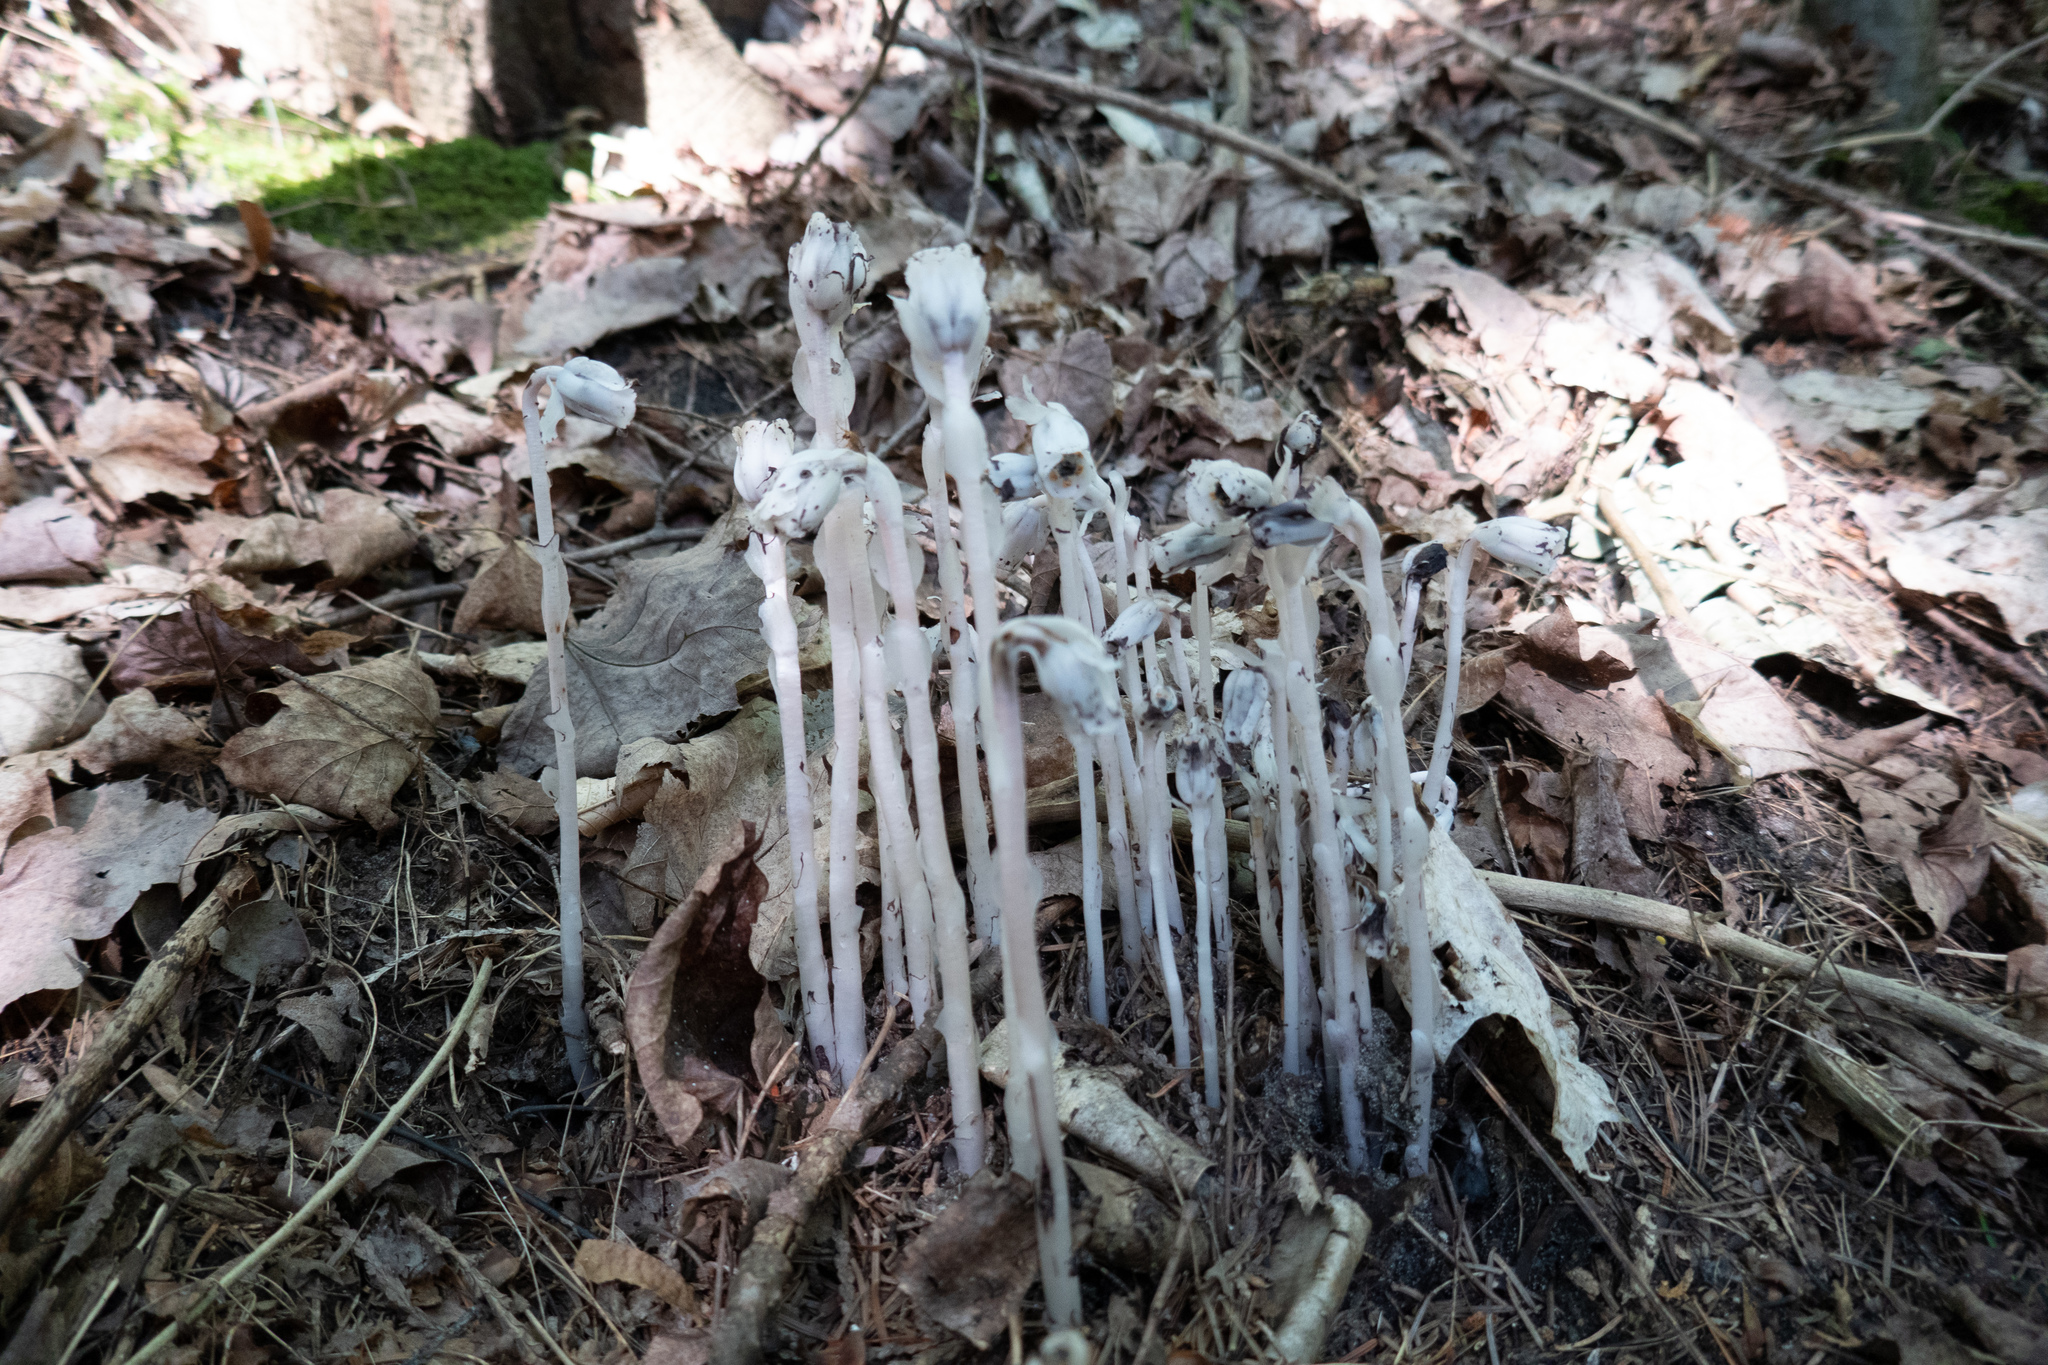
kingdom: Plantae
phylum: Tracheophyta
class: Magnoliopsida
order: Ericales
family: Ericaceae
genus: Monotropa
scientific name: Monotropa uniflora
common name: Convulsion root
